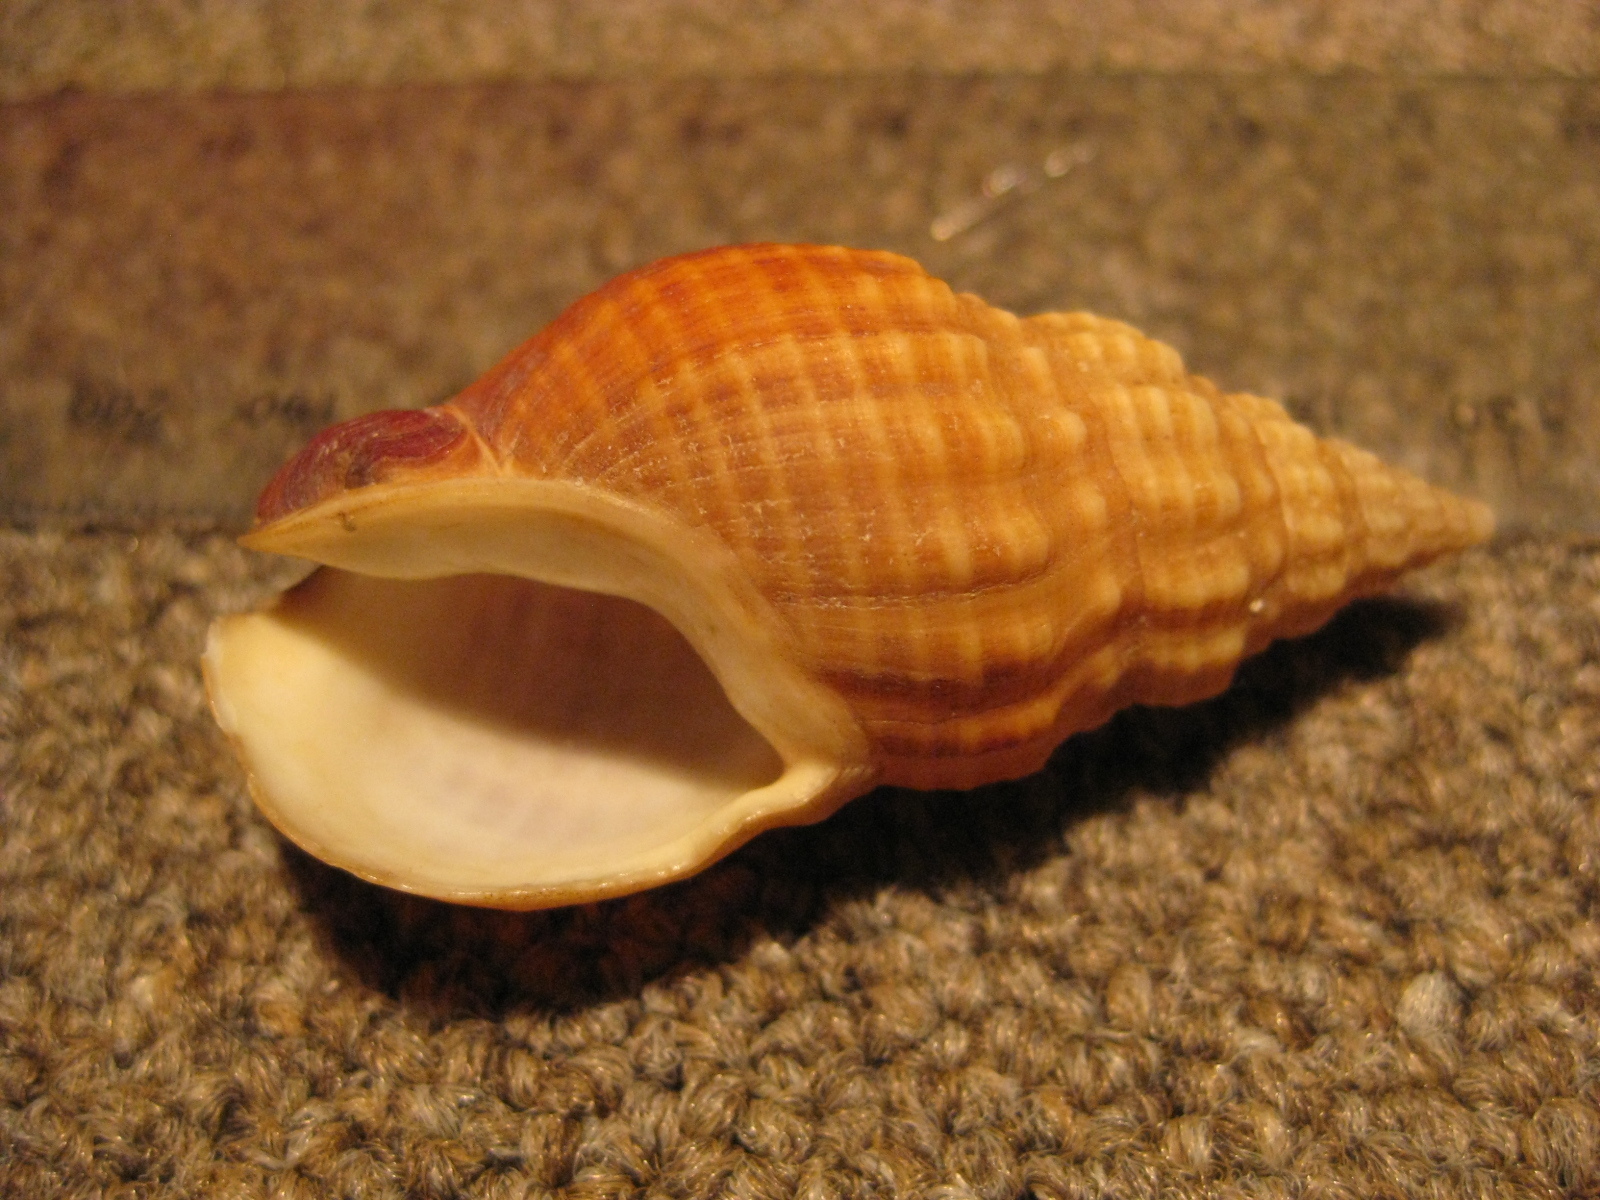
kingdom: Animalia
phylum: Mollusca
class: Gastropoda
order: Neogastropoda
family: Cominellidae
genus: Cominella
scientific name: Cominella nassoides
